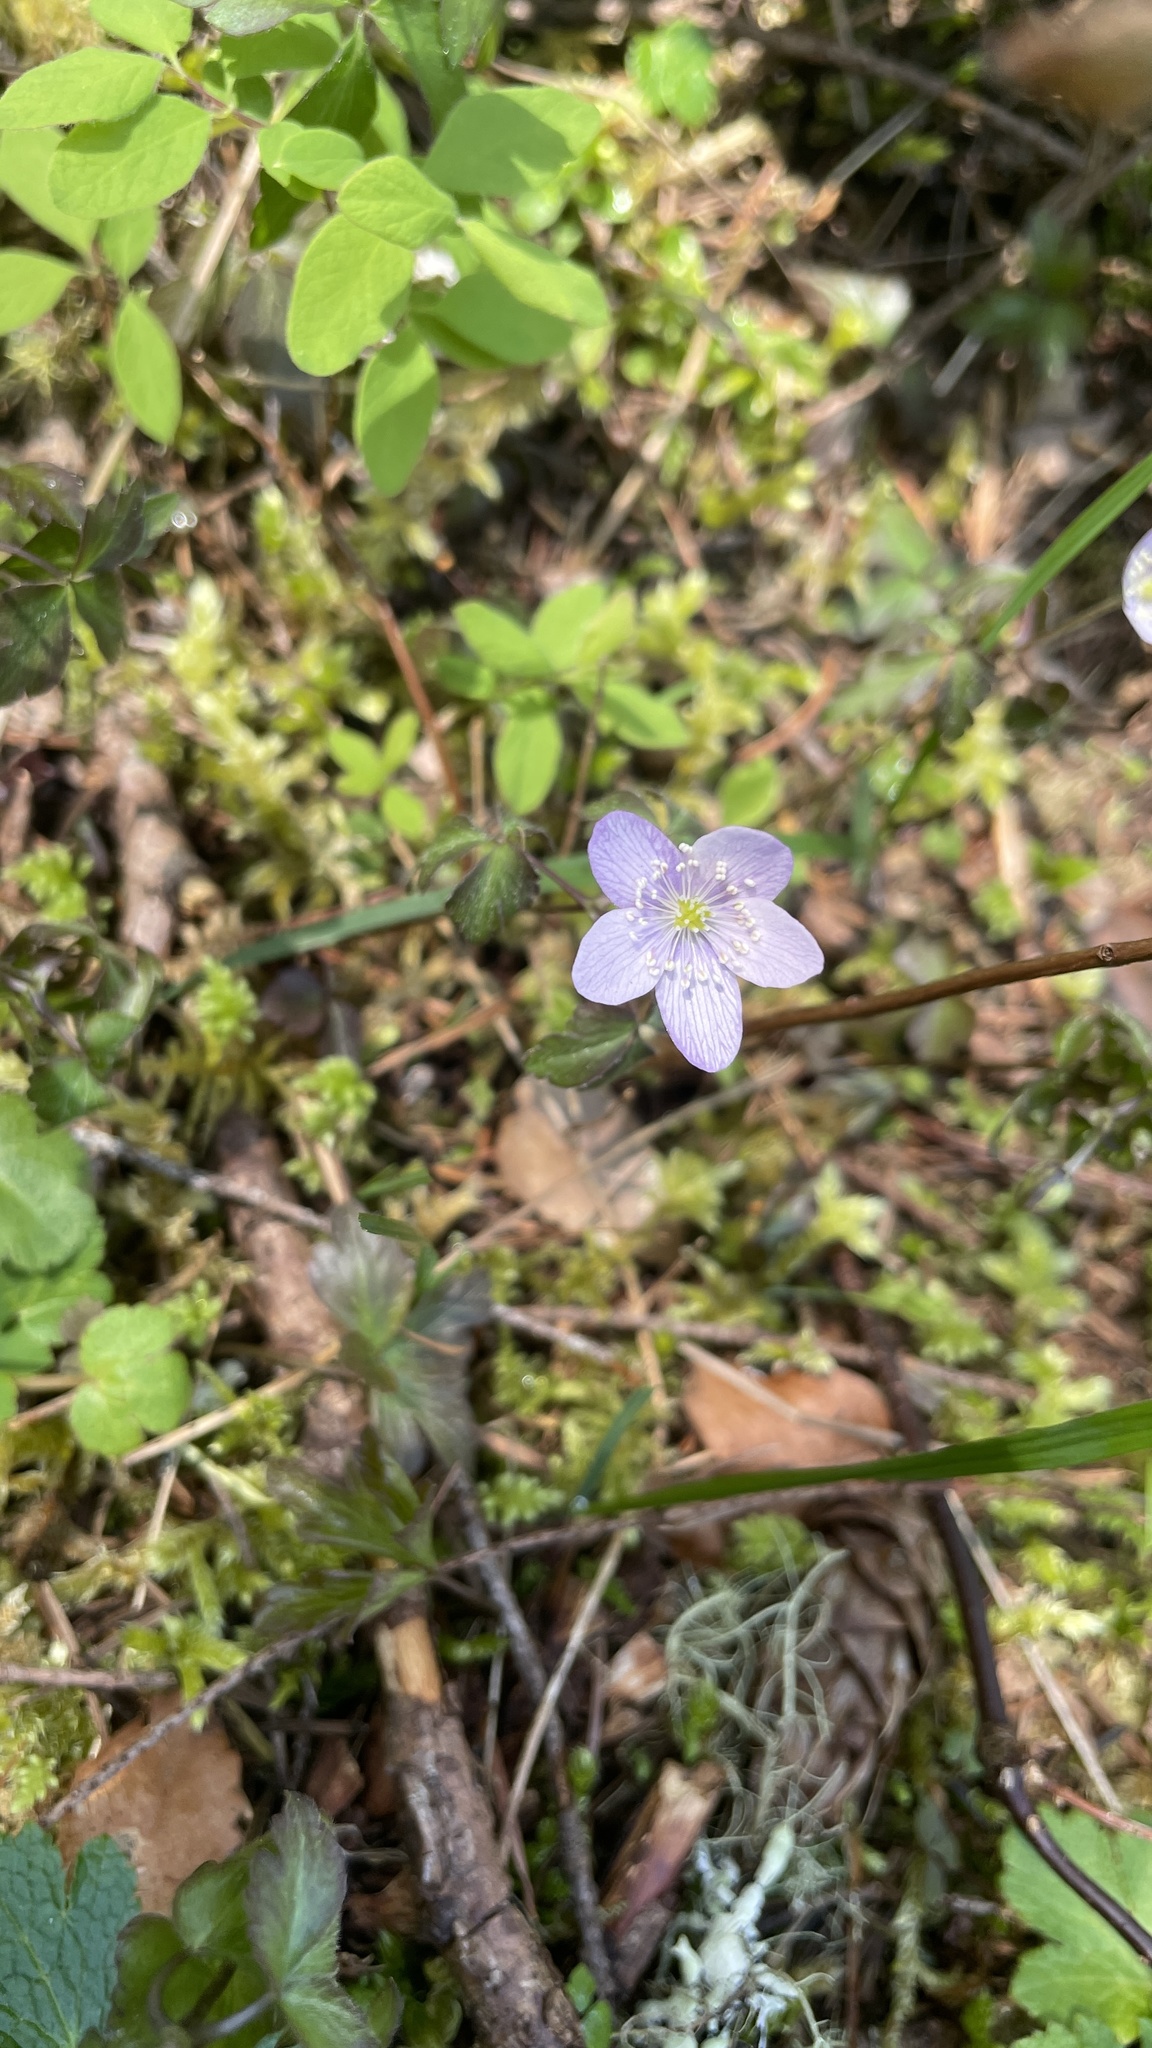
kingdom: Plantae
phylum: Tracheophyta
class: Magnoliopsida
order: Ranunculales
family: Ranunculaceae
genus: Anemone
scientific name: Anemone oregana
